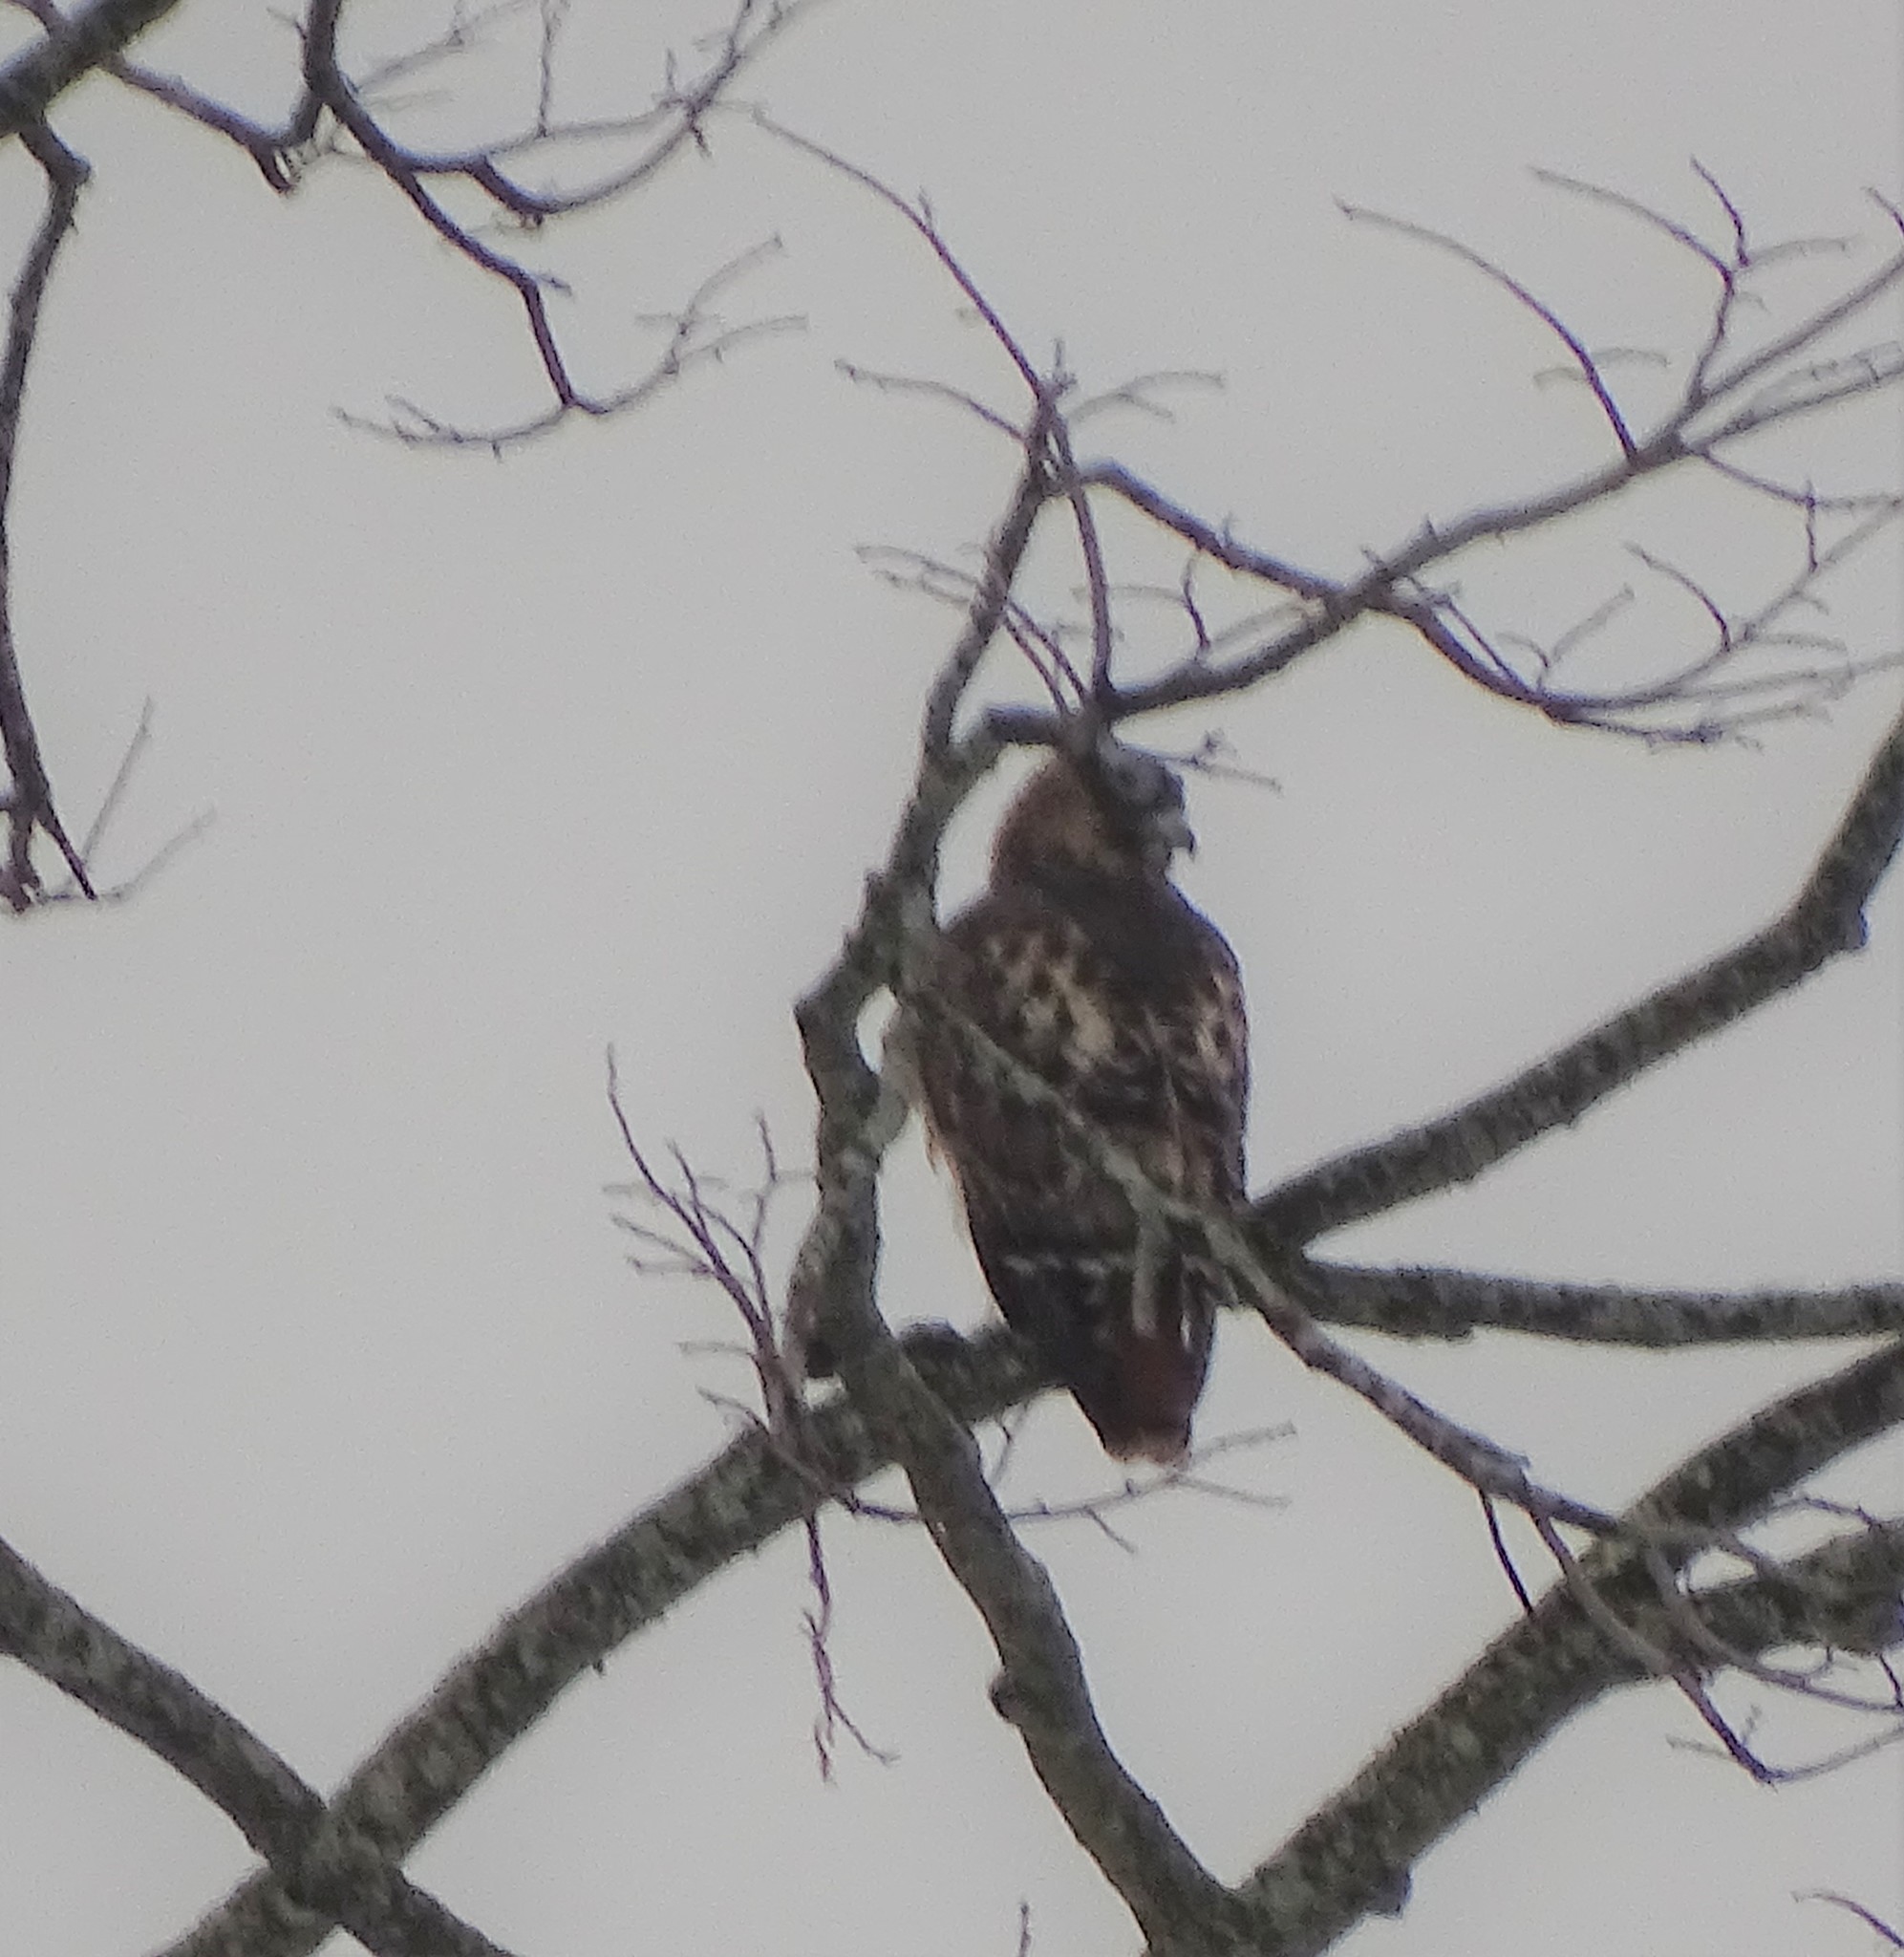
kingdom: Animalia
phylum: Chordata
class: Aves
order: Accipitriformes
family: Accipitridae
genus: Buteo
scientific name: Buteo jamaicensis
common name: Red-tailed hawk
